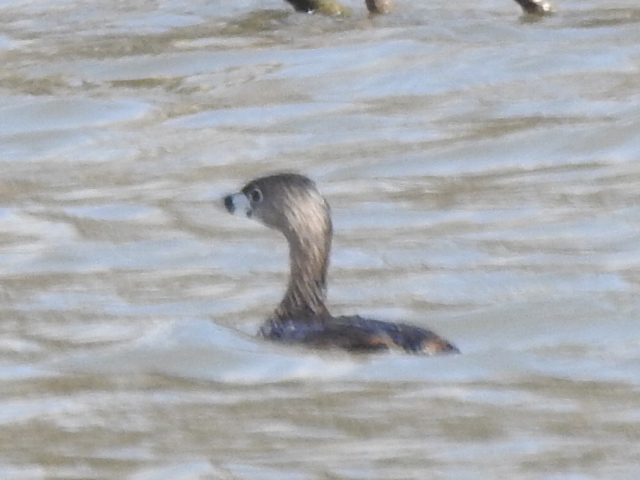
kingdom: Animalia
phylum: Chordata
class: Aves
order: Podicipediformes
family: Podicipedidae
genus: Podilymbus
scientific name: Podilymbus podiceps
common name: Pied-billed grebe
